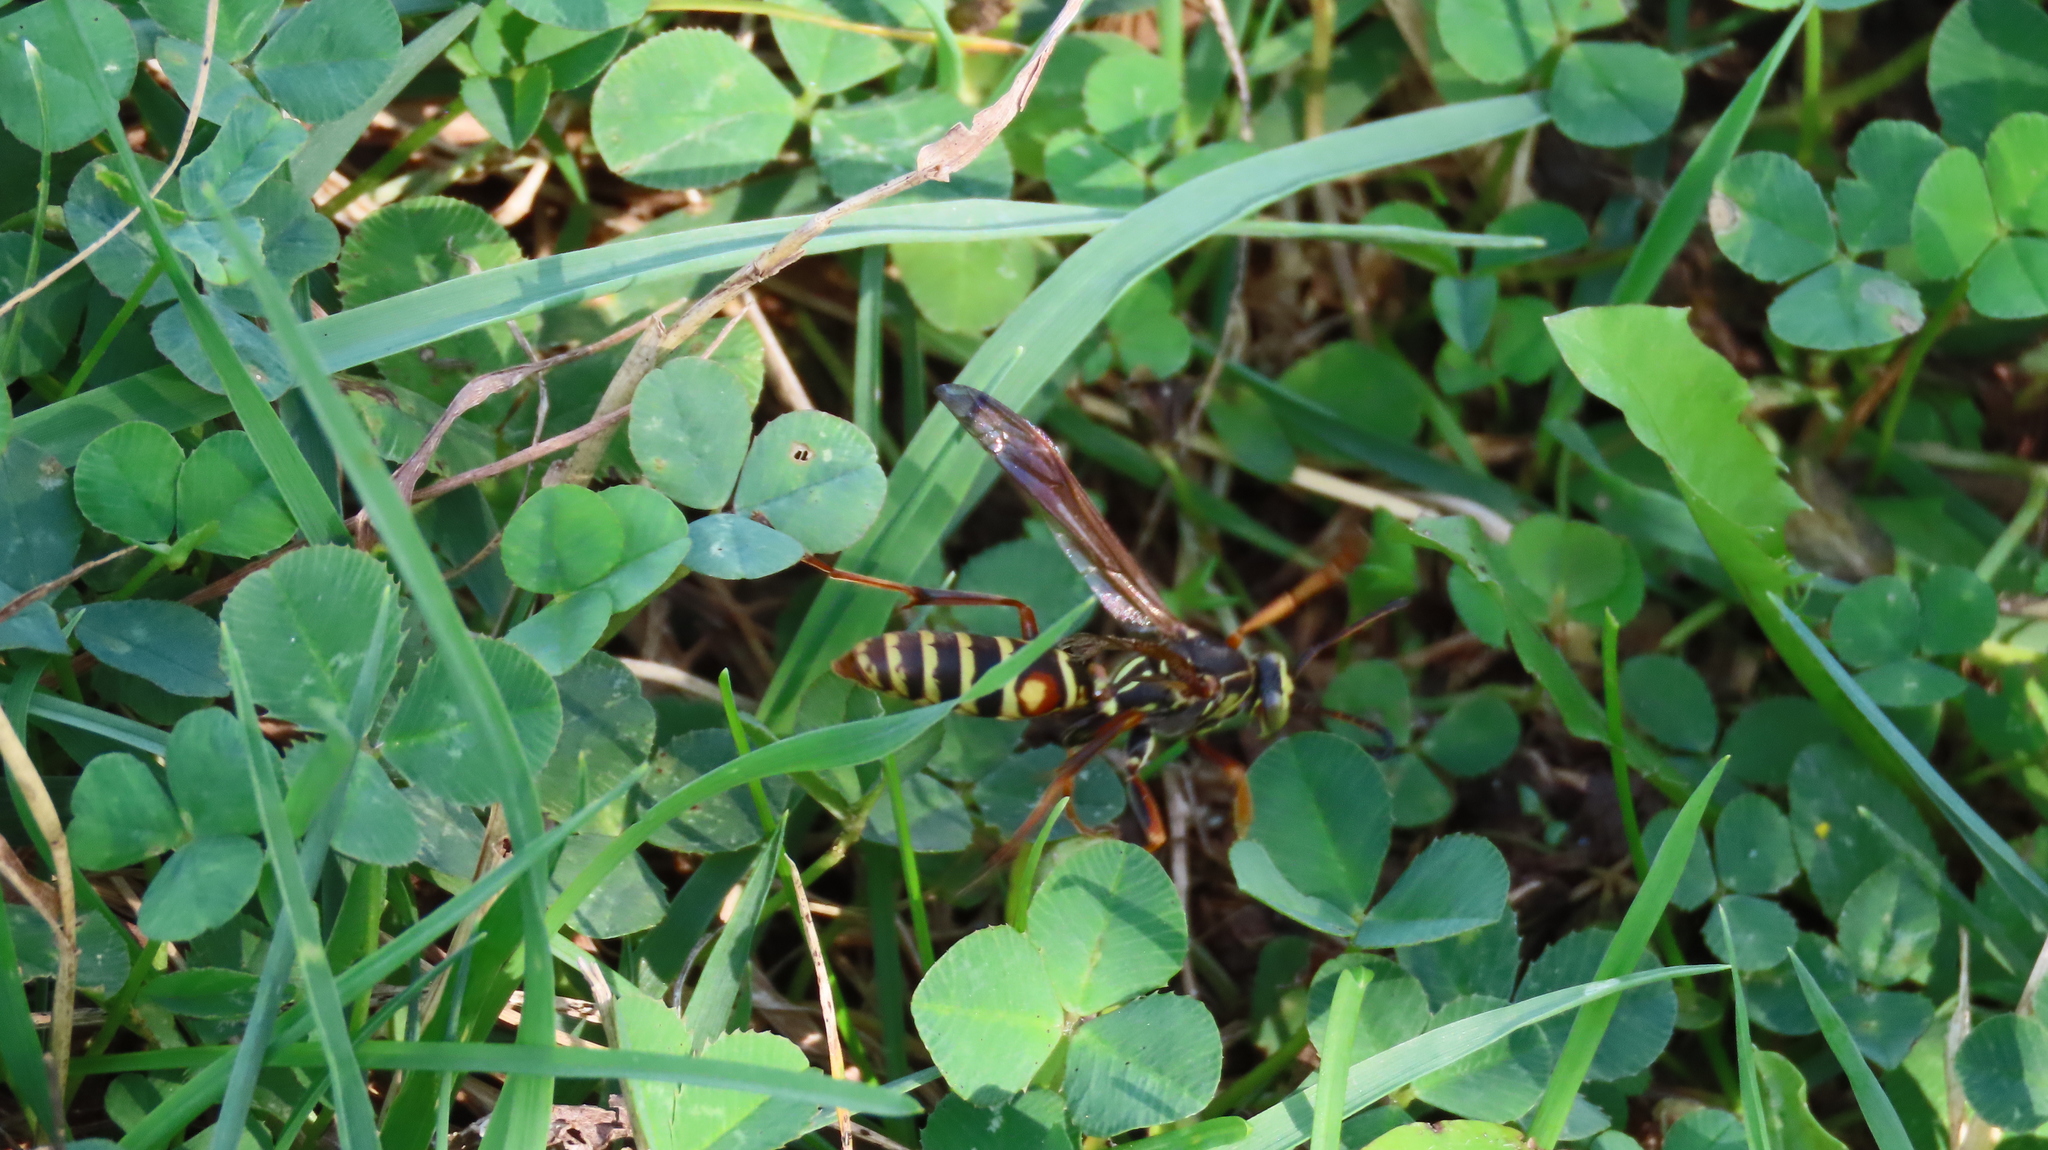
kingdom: Animalia
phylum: Arthropoda
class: Insecta
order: Hymenoptera
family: Eumenidae
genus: Polistes
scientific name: Polistes fuscatus
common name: Dark paper wasp
